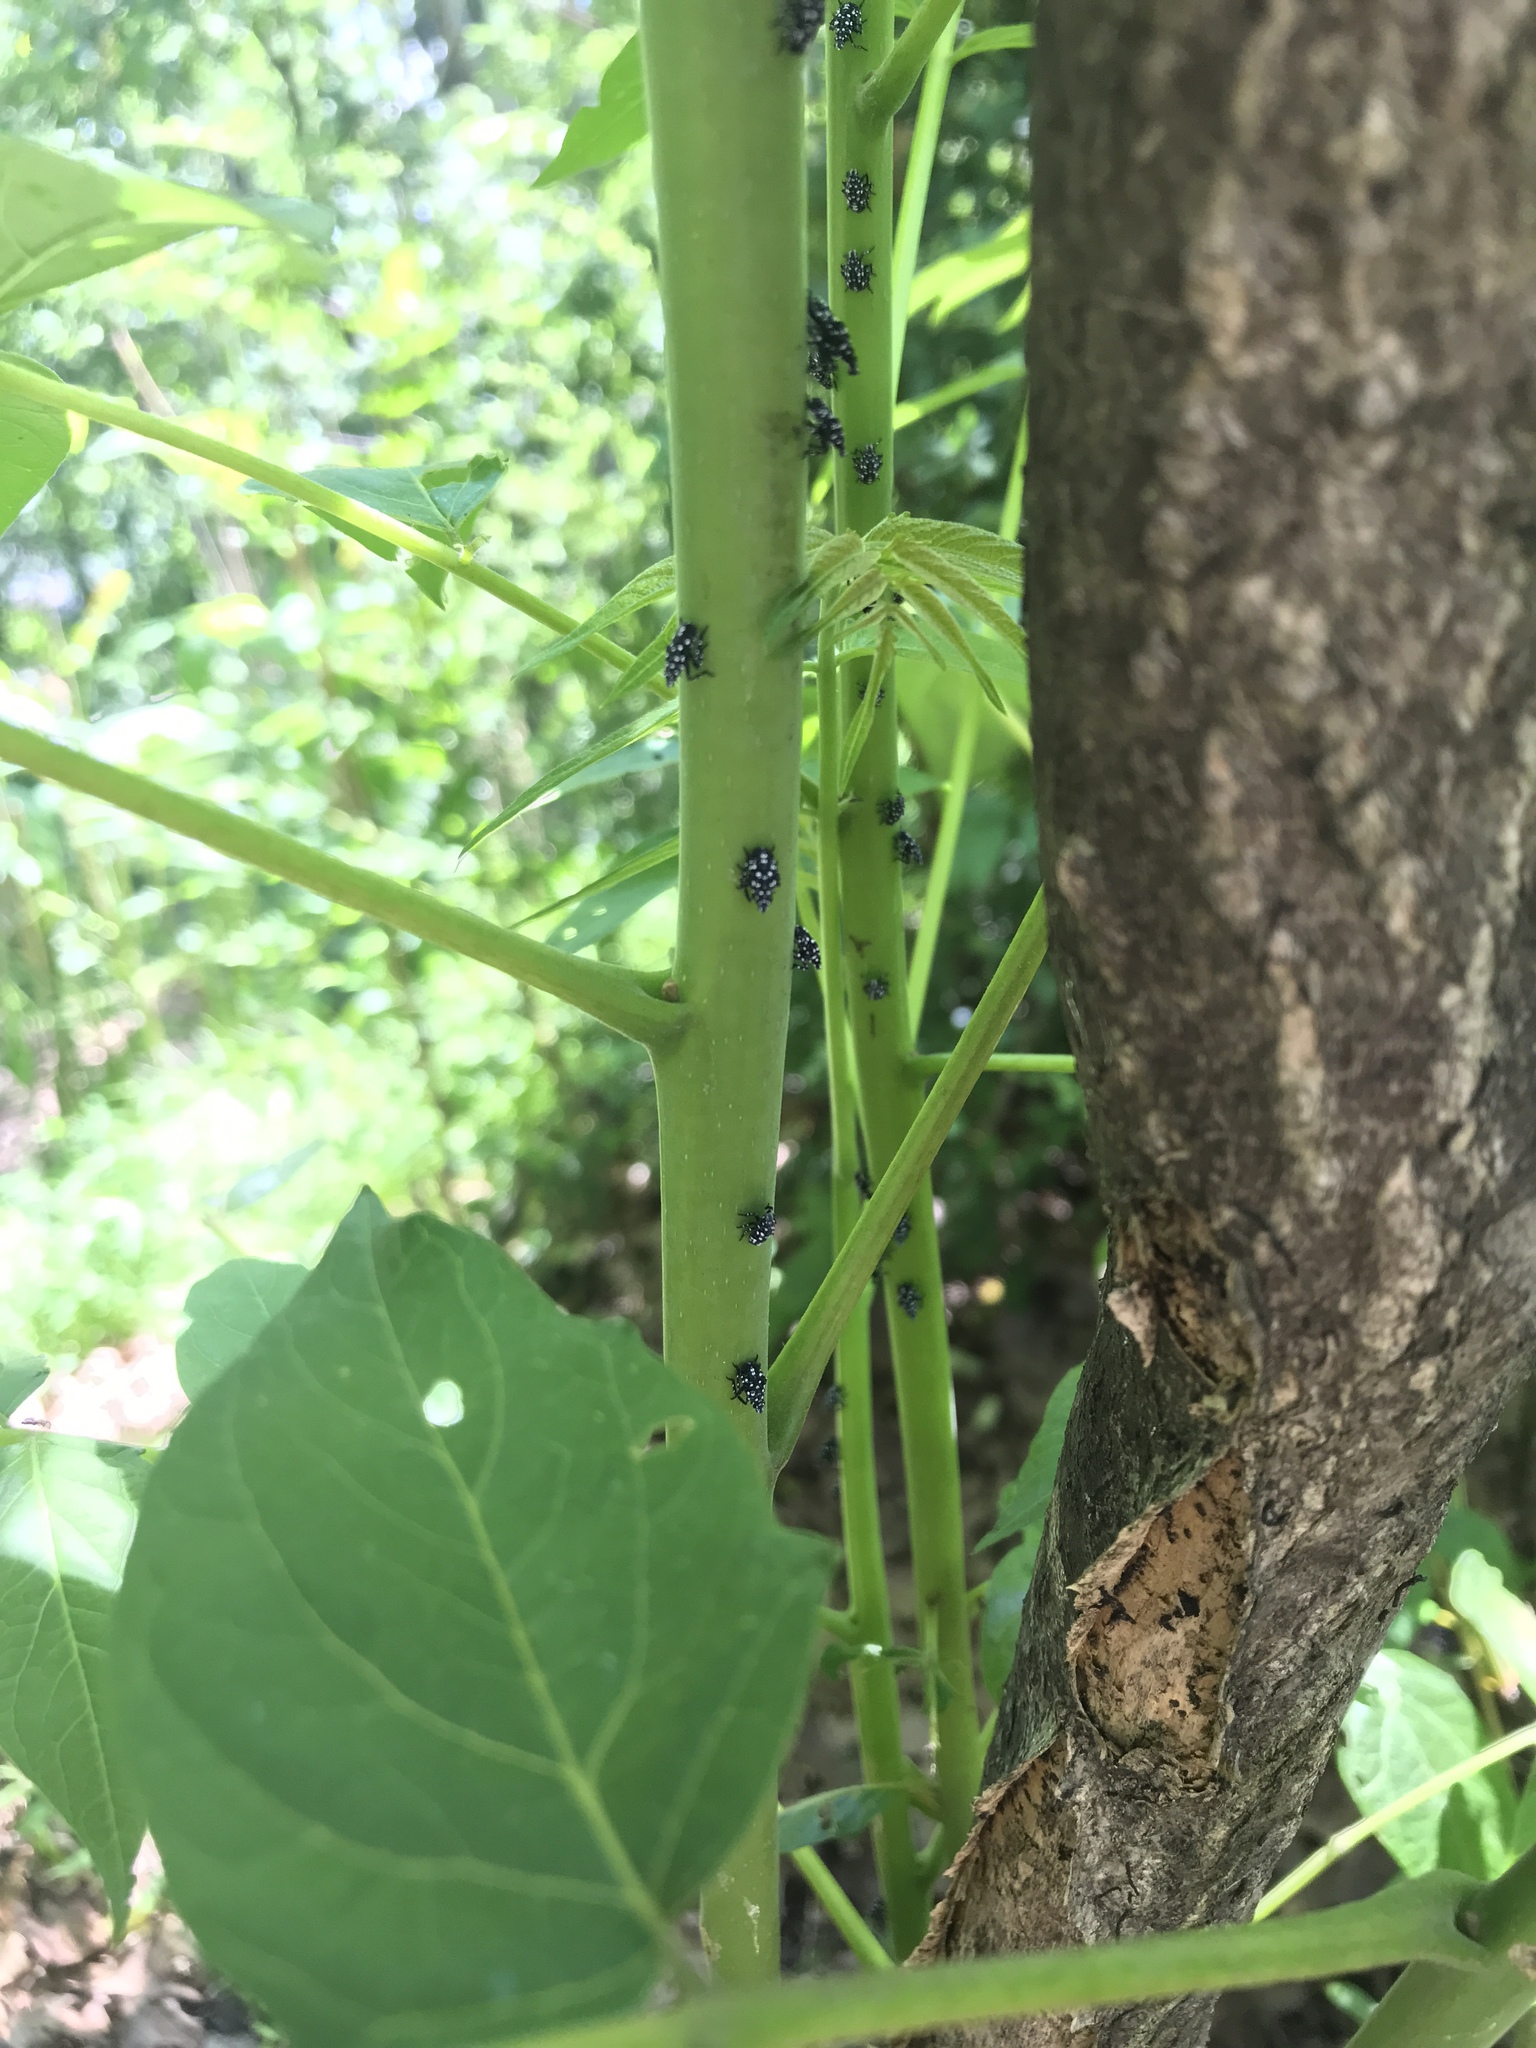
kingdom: Animalia
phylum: Arthropoda
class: Insecta
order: Hemiptera
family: Fulgoridae
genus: Lycorma
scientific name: Lycorma delicatula
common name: Spotted lanternfly
